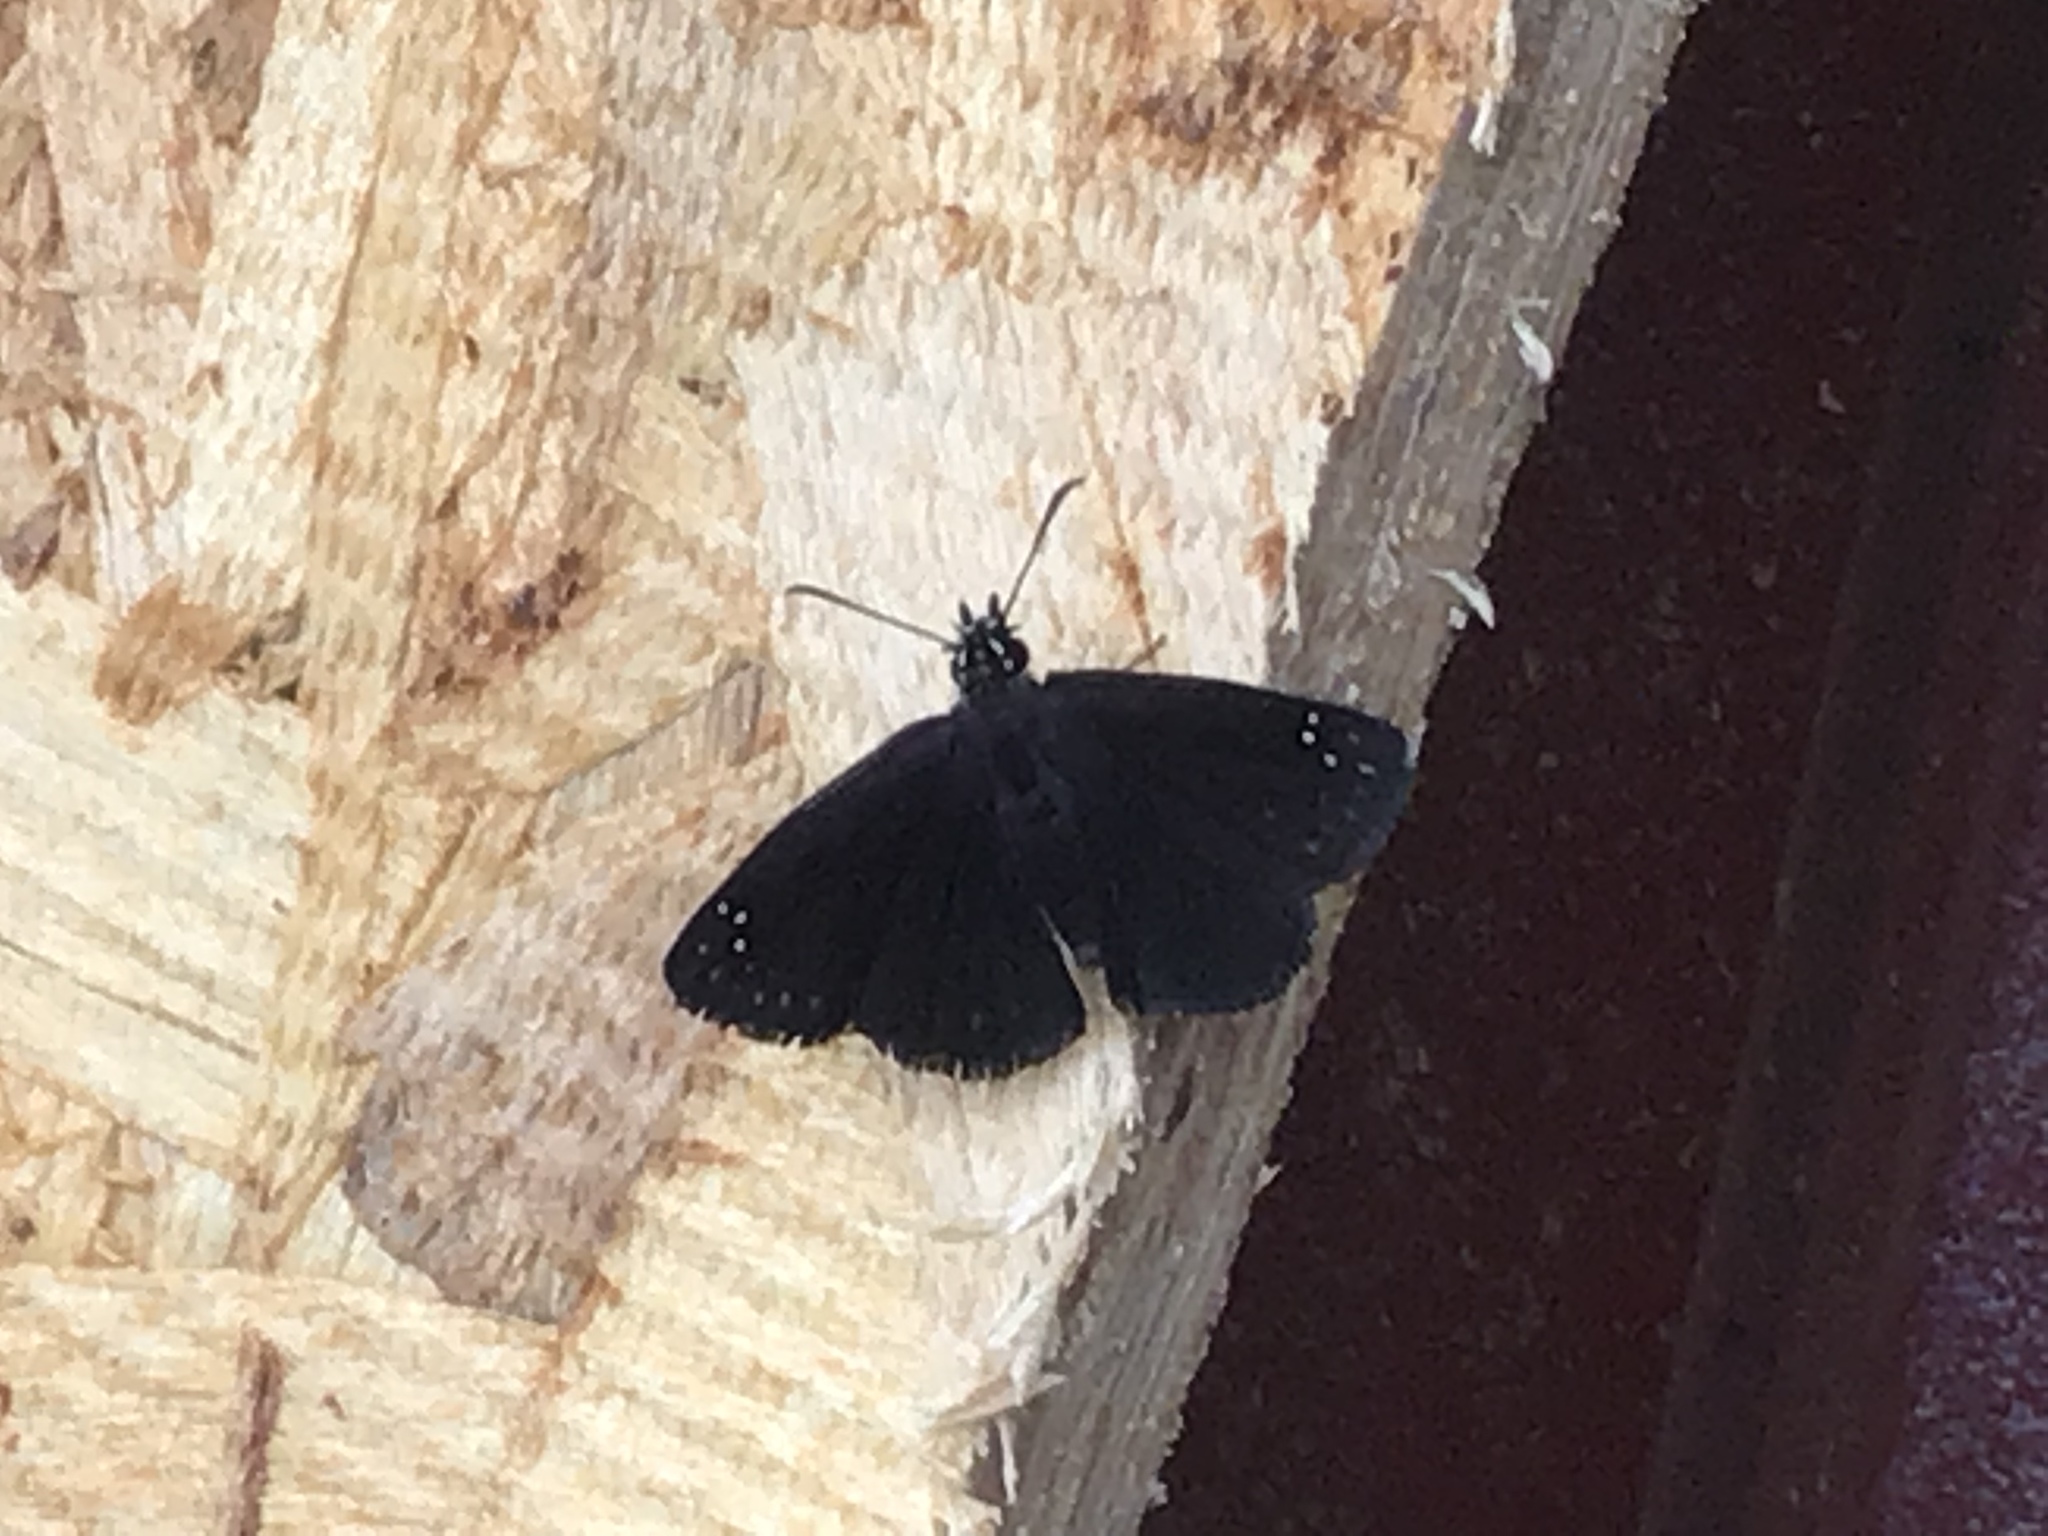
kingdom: Animalia
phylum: Arthropoda
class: Insecta
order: Lepidoptera
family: Hesperiidae
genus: Pholisora
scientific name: Pholisora catullus
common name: Common sootywing
